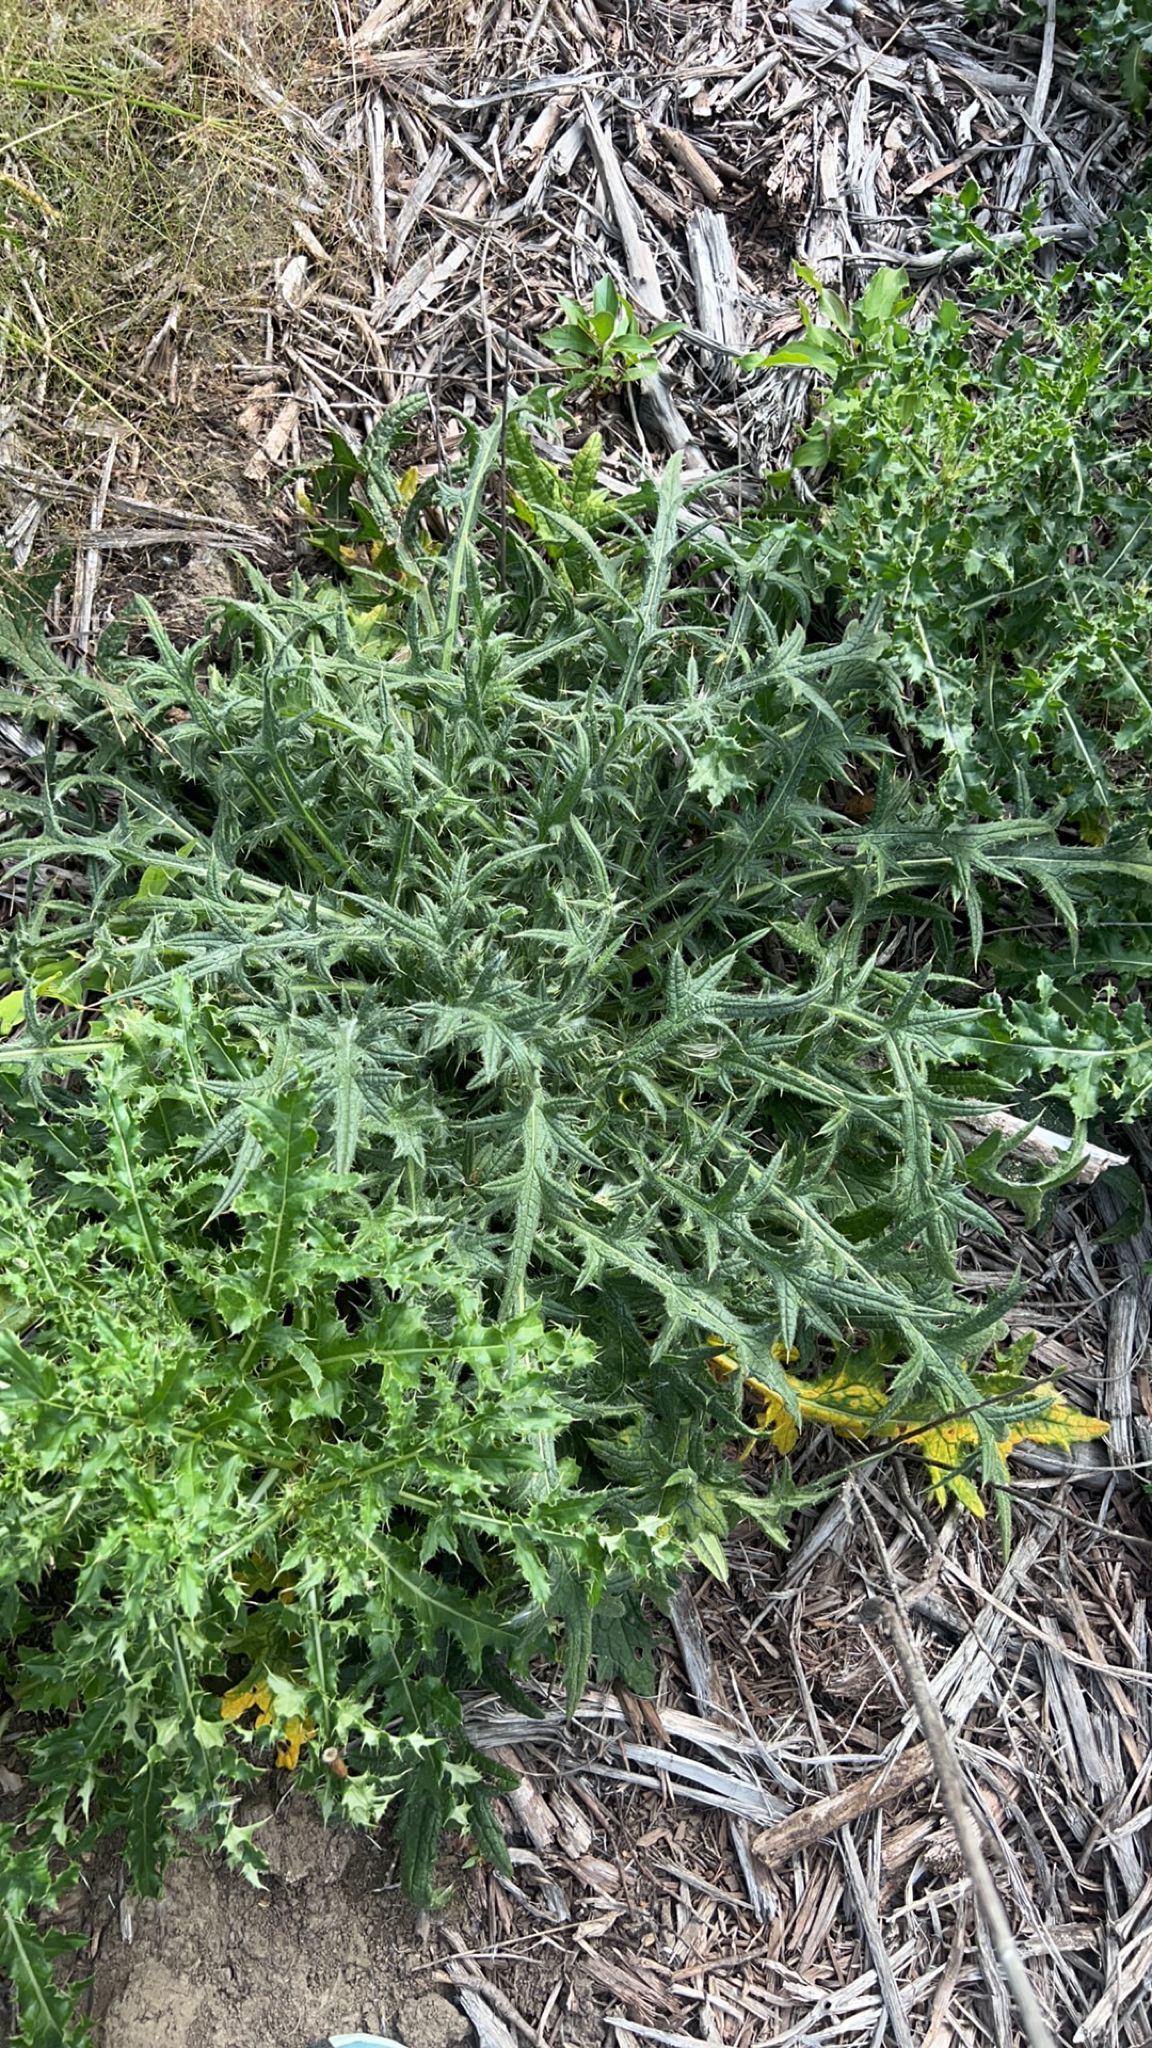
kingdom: Plantae
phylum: Tracheophyta
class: Magnoliopsida
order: Asterales
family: Asteraceae
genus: Cirsium
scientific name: Cirsium vulgare
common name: Bull thistle
